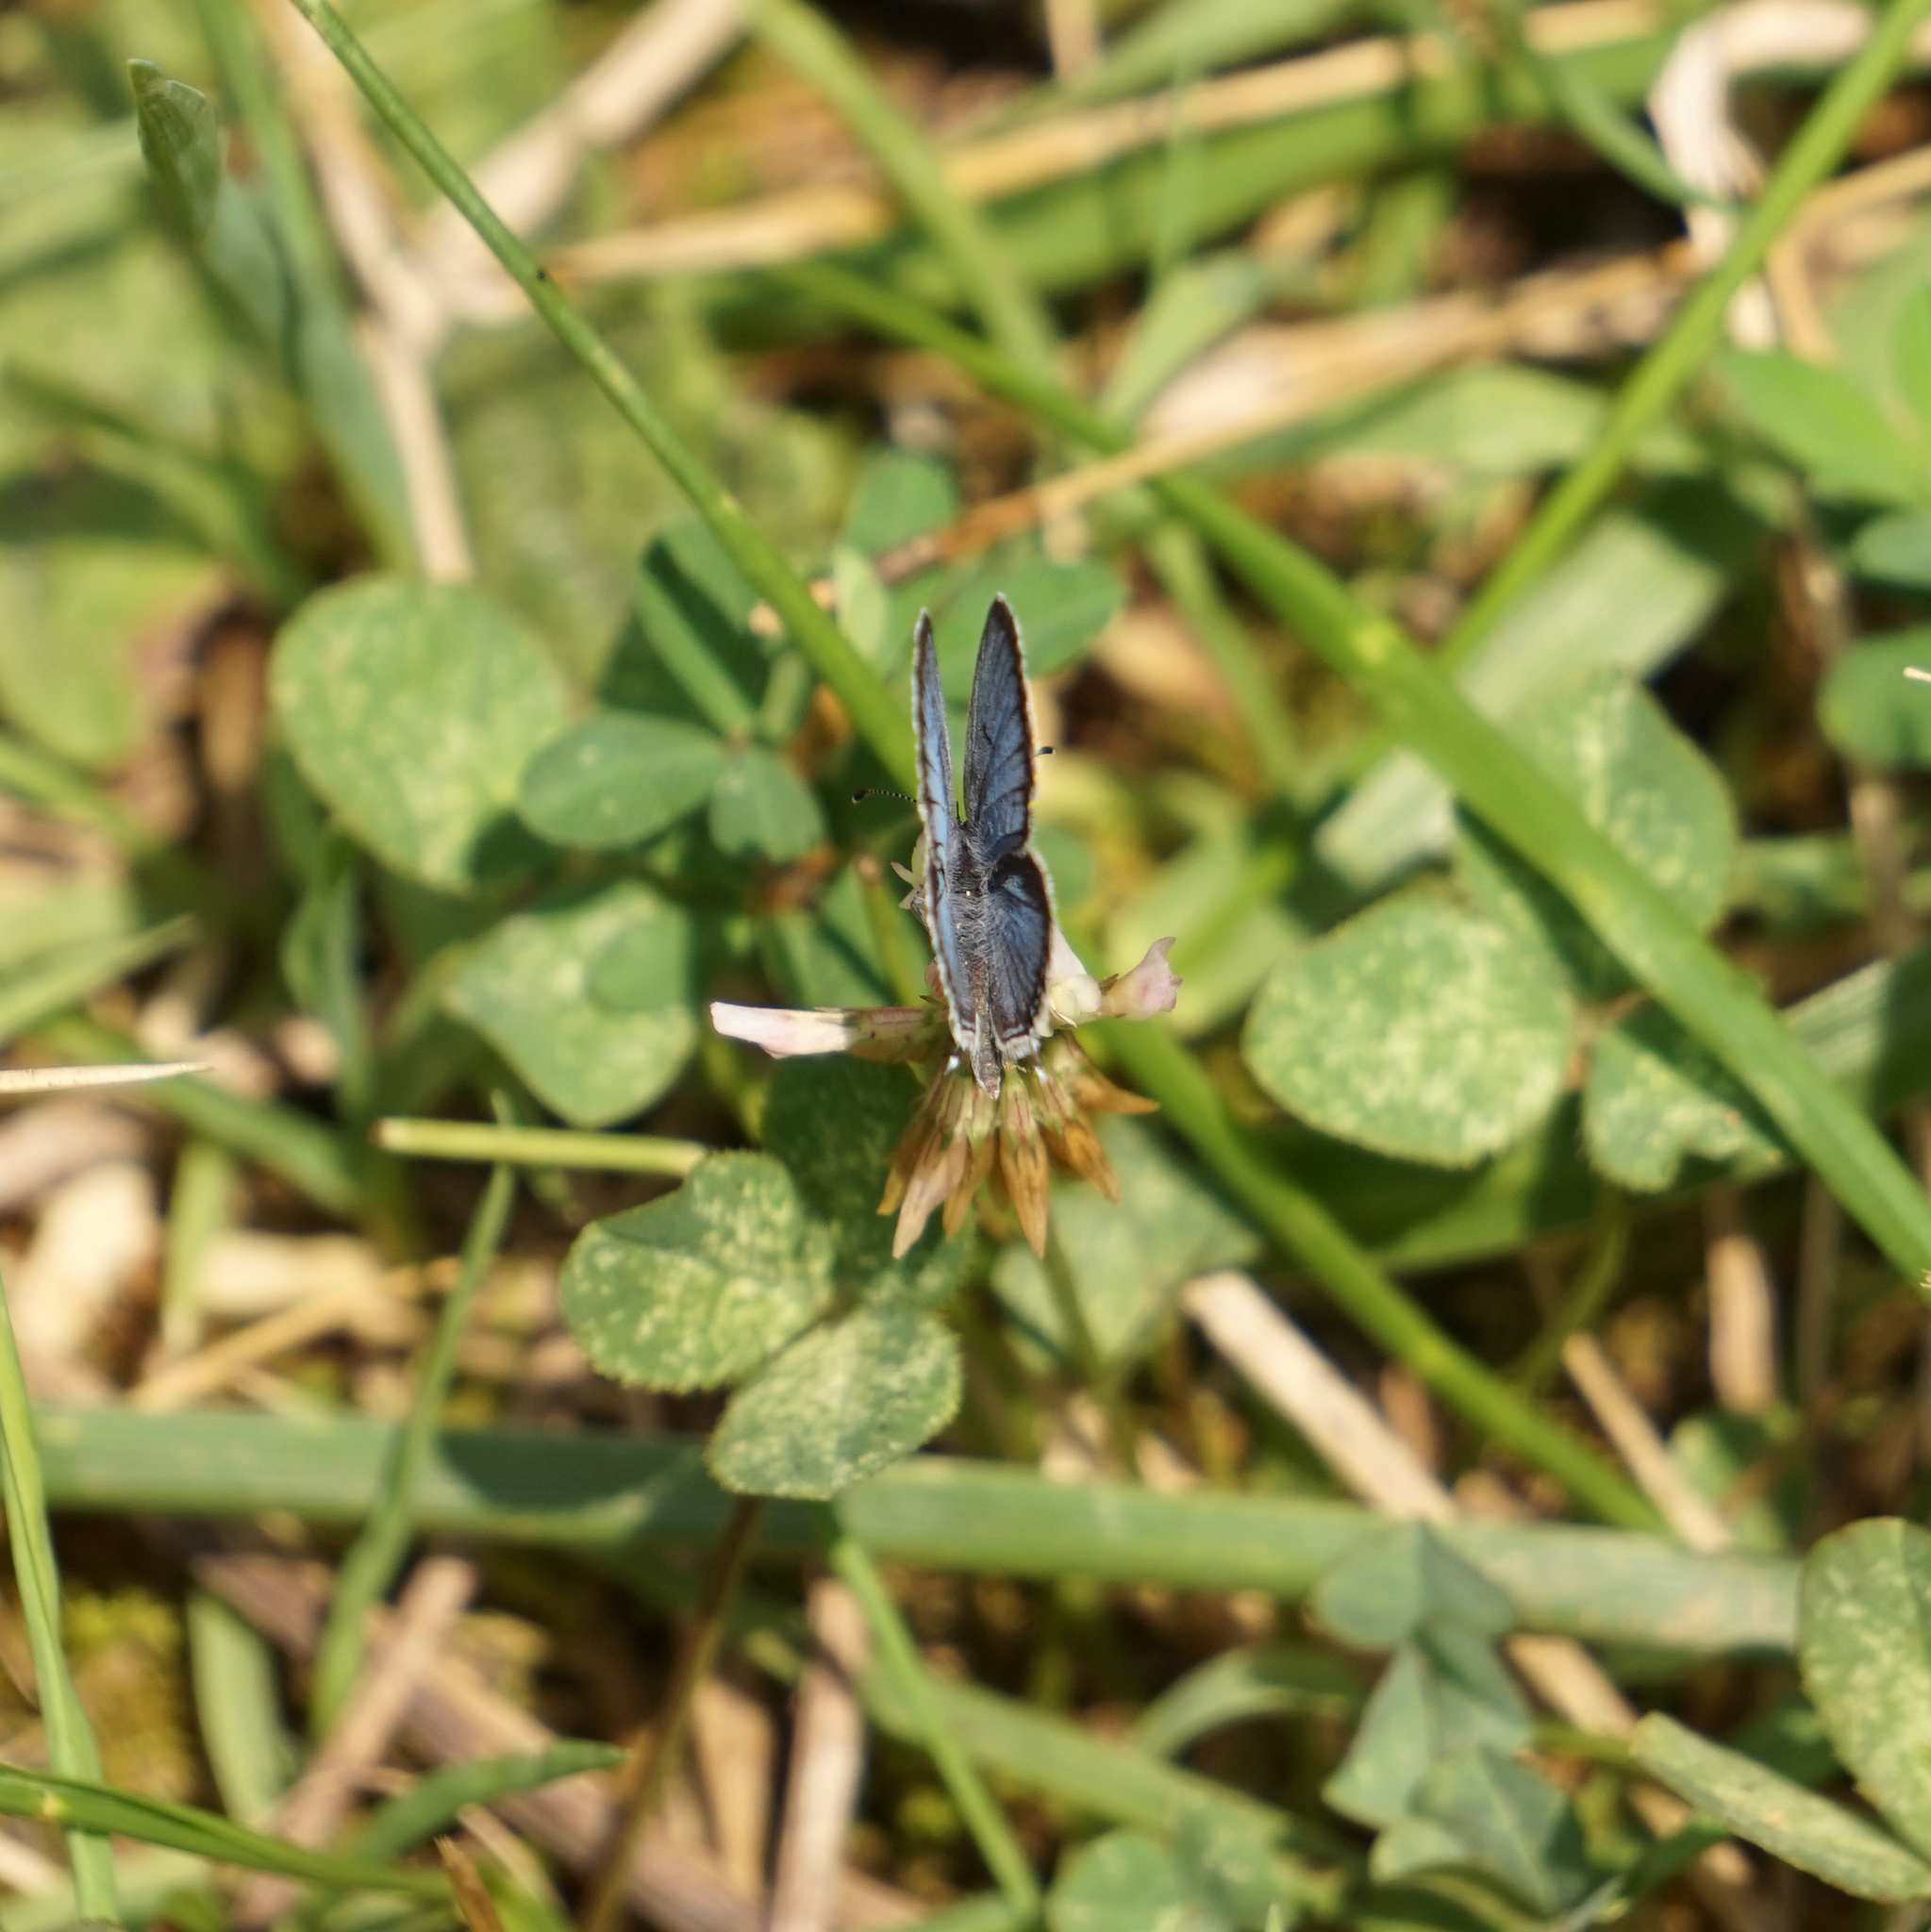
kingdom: Animalia
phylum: Arthropoda
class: Insecta
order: Lepidoptera
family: Lycaenidae
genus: Elkalyce
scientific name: Elkalyce comyntas
